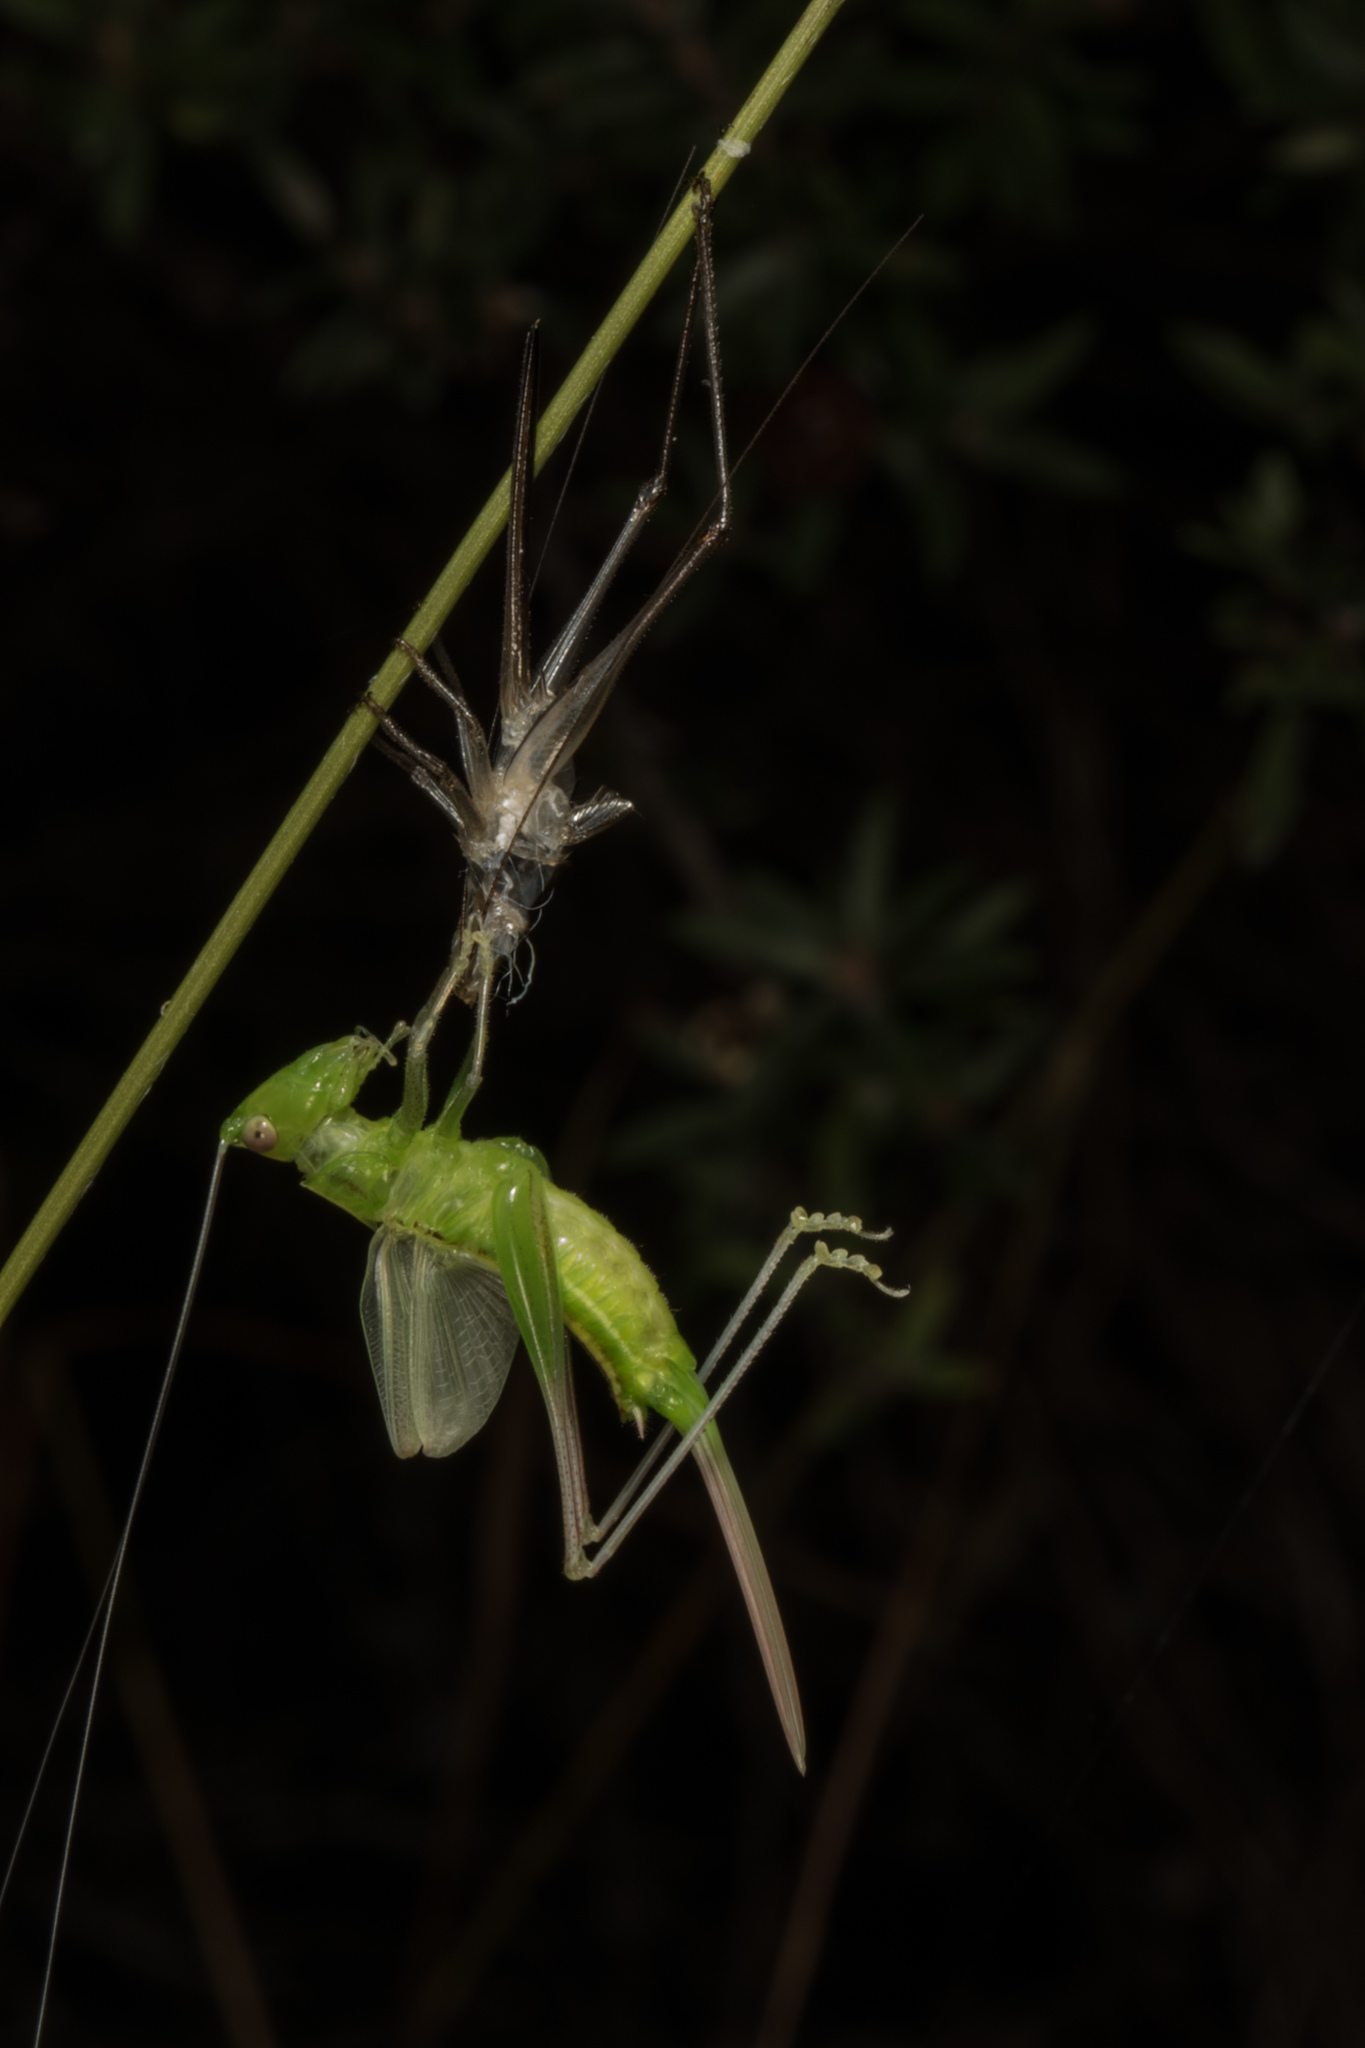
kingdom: Animalia
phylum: Arthropoda
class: Insecta
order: Orthoptera
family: Tettigoniidae
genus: Conocephalus
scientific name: Conocephalus semivittatus
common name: Blackish meadow katydid
